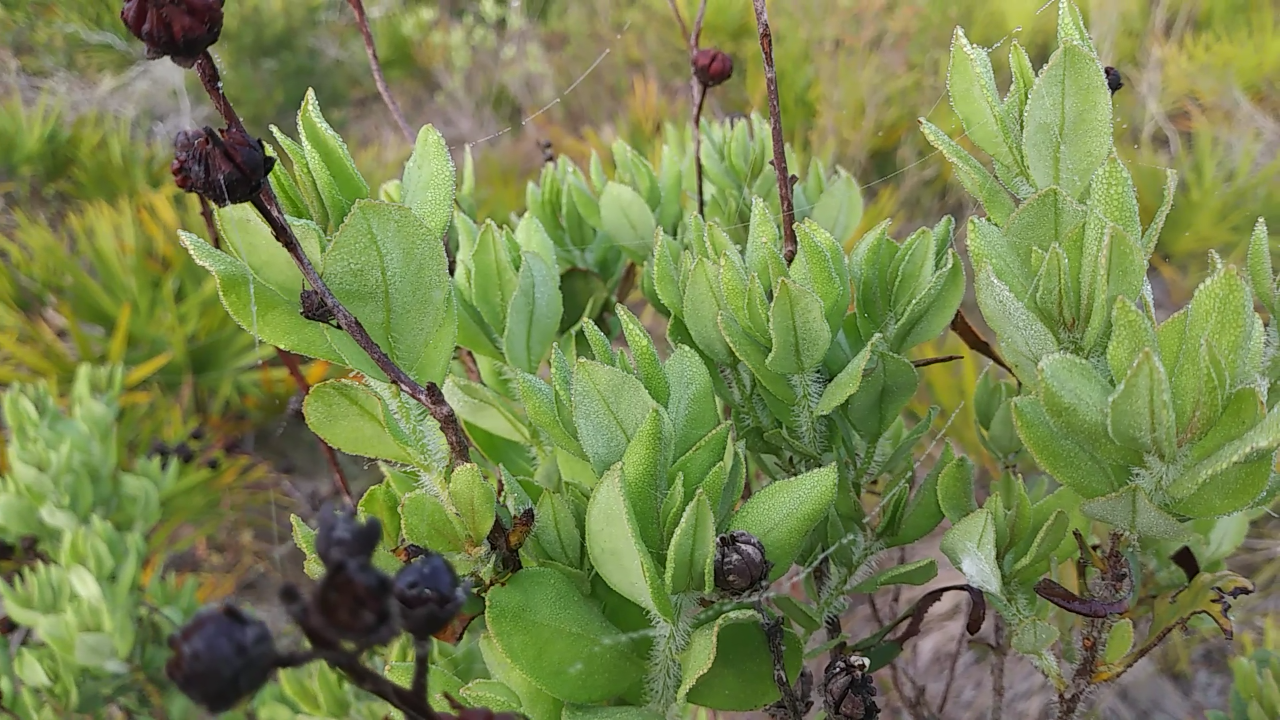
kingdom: Plantae
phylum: Tracheophyta
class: Magnoliopsida
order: Ericales
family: Ericaceae
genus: Bejaria
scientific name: Bejaria racemosa
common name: Tarflower
